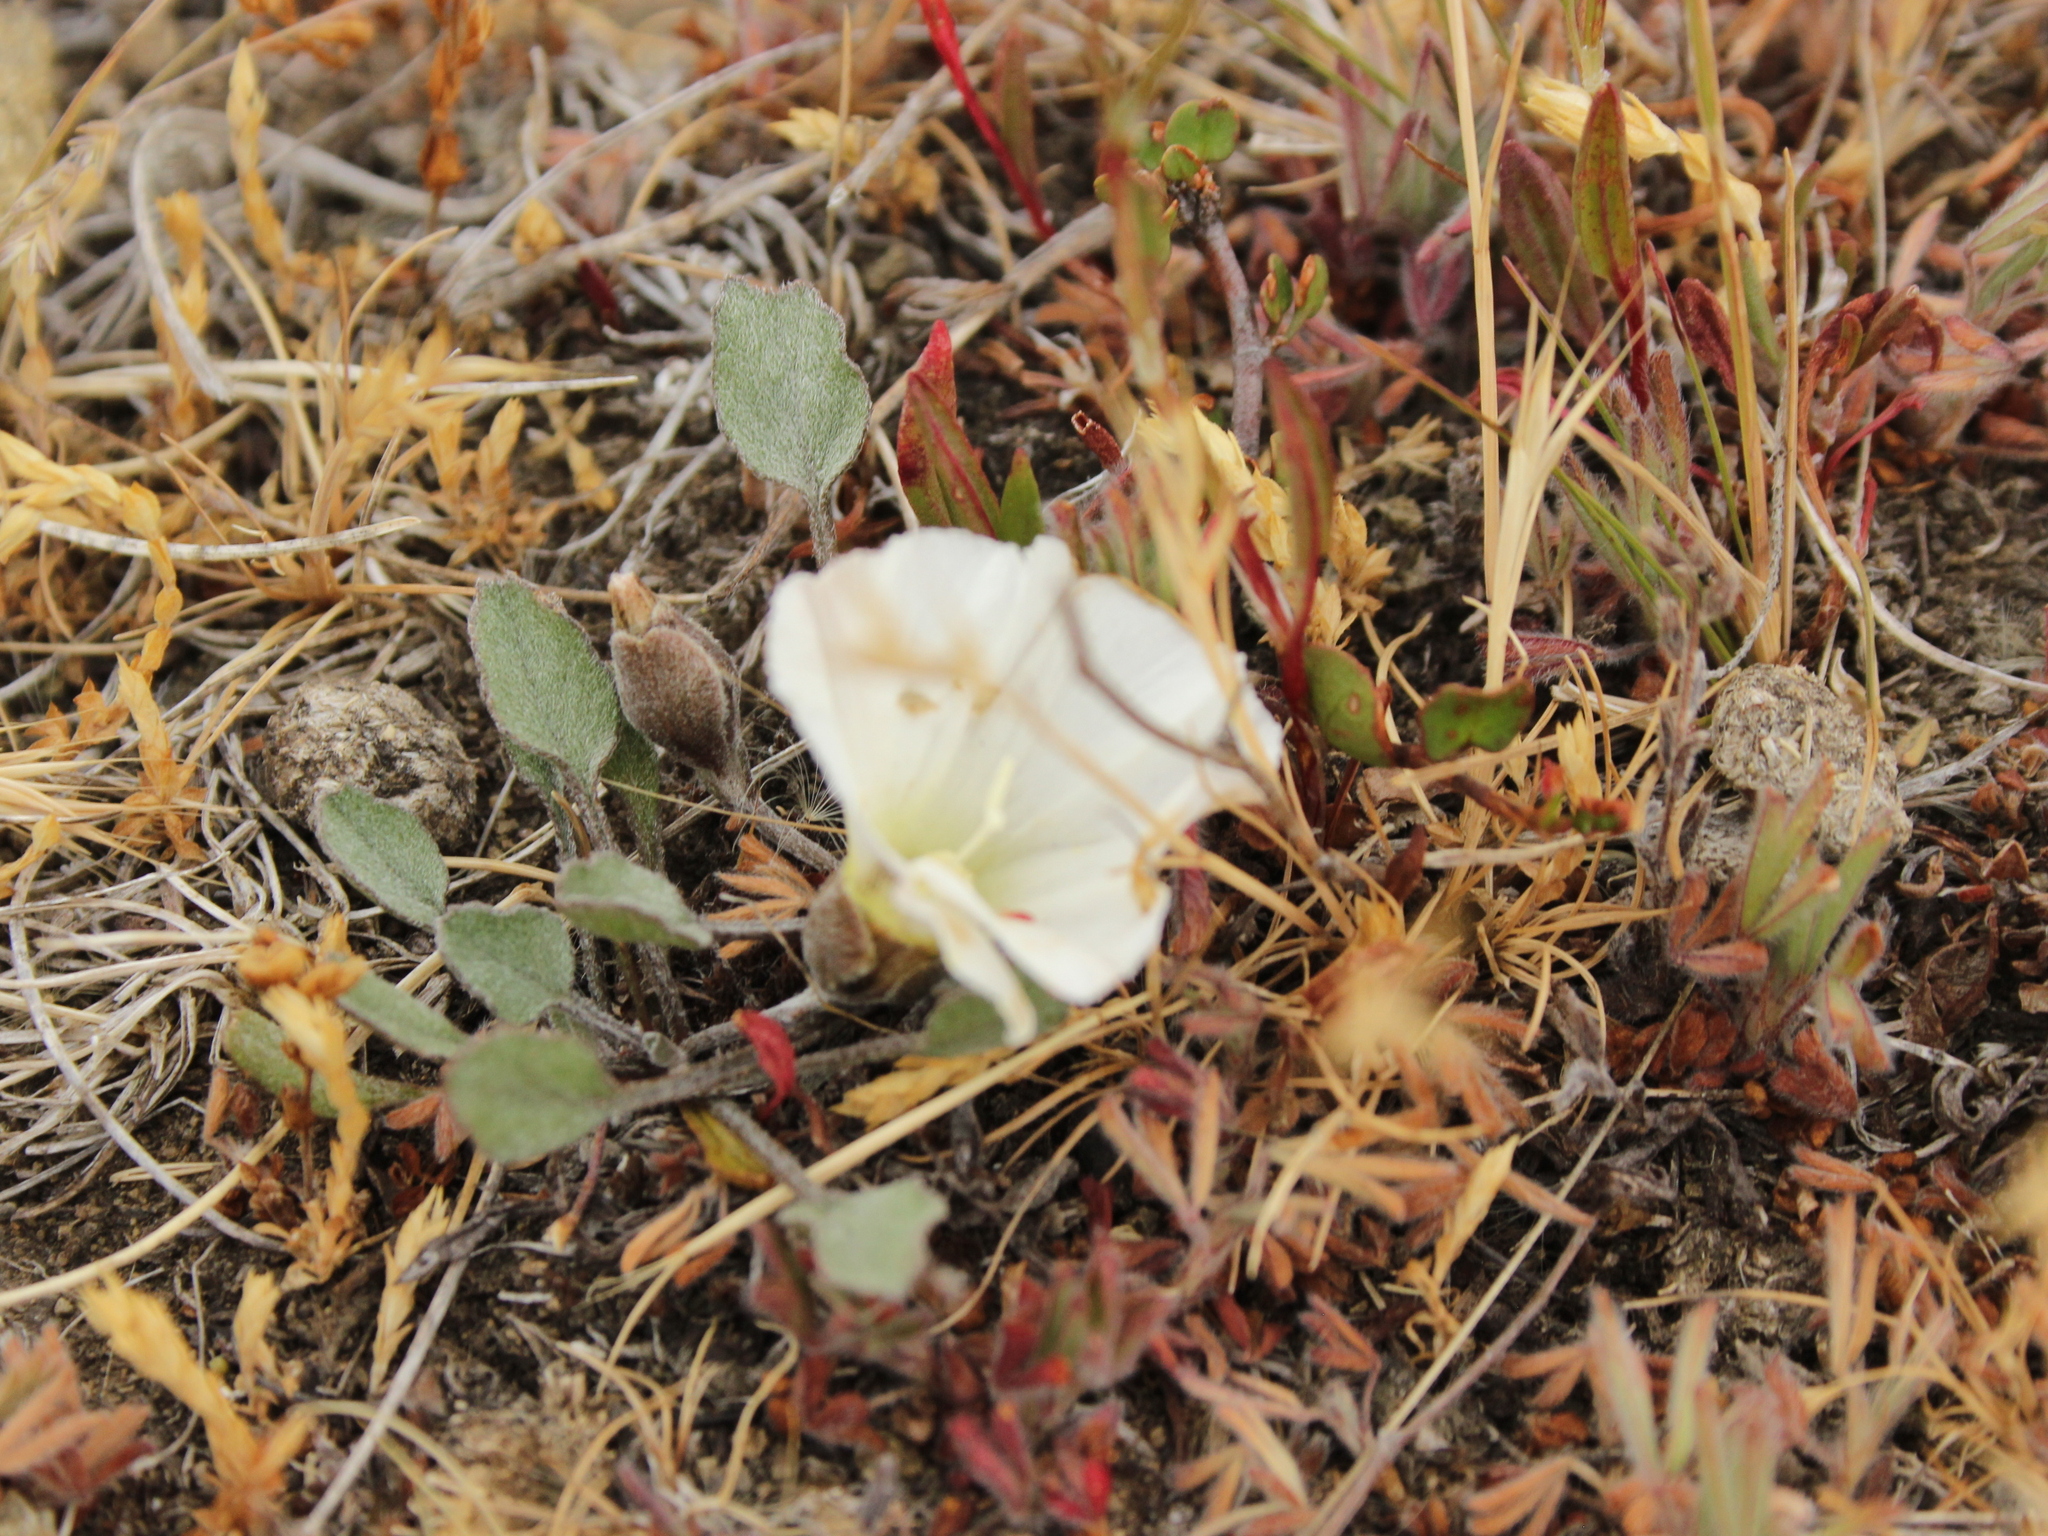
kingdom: Plantae
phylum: Tracheophyta
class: Magnoliopsida
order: Solanales
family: Convolvulaceae
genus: Convolvulus
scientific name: Convolvulus waitaha
